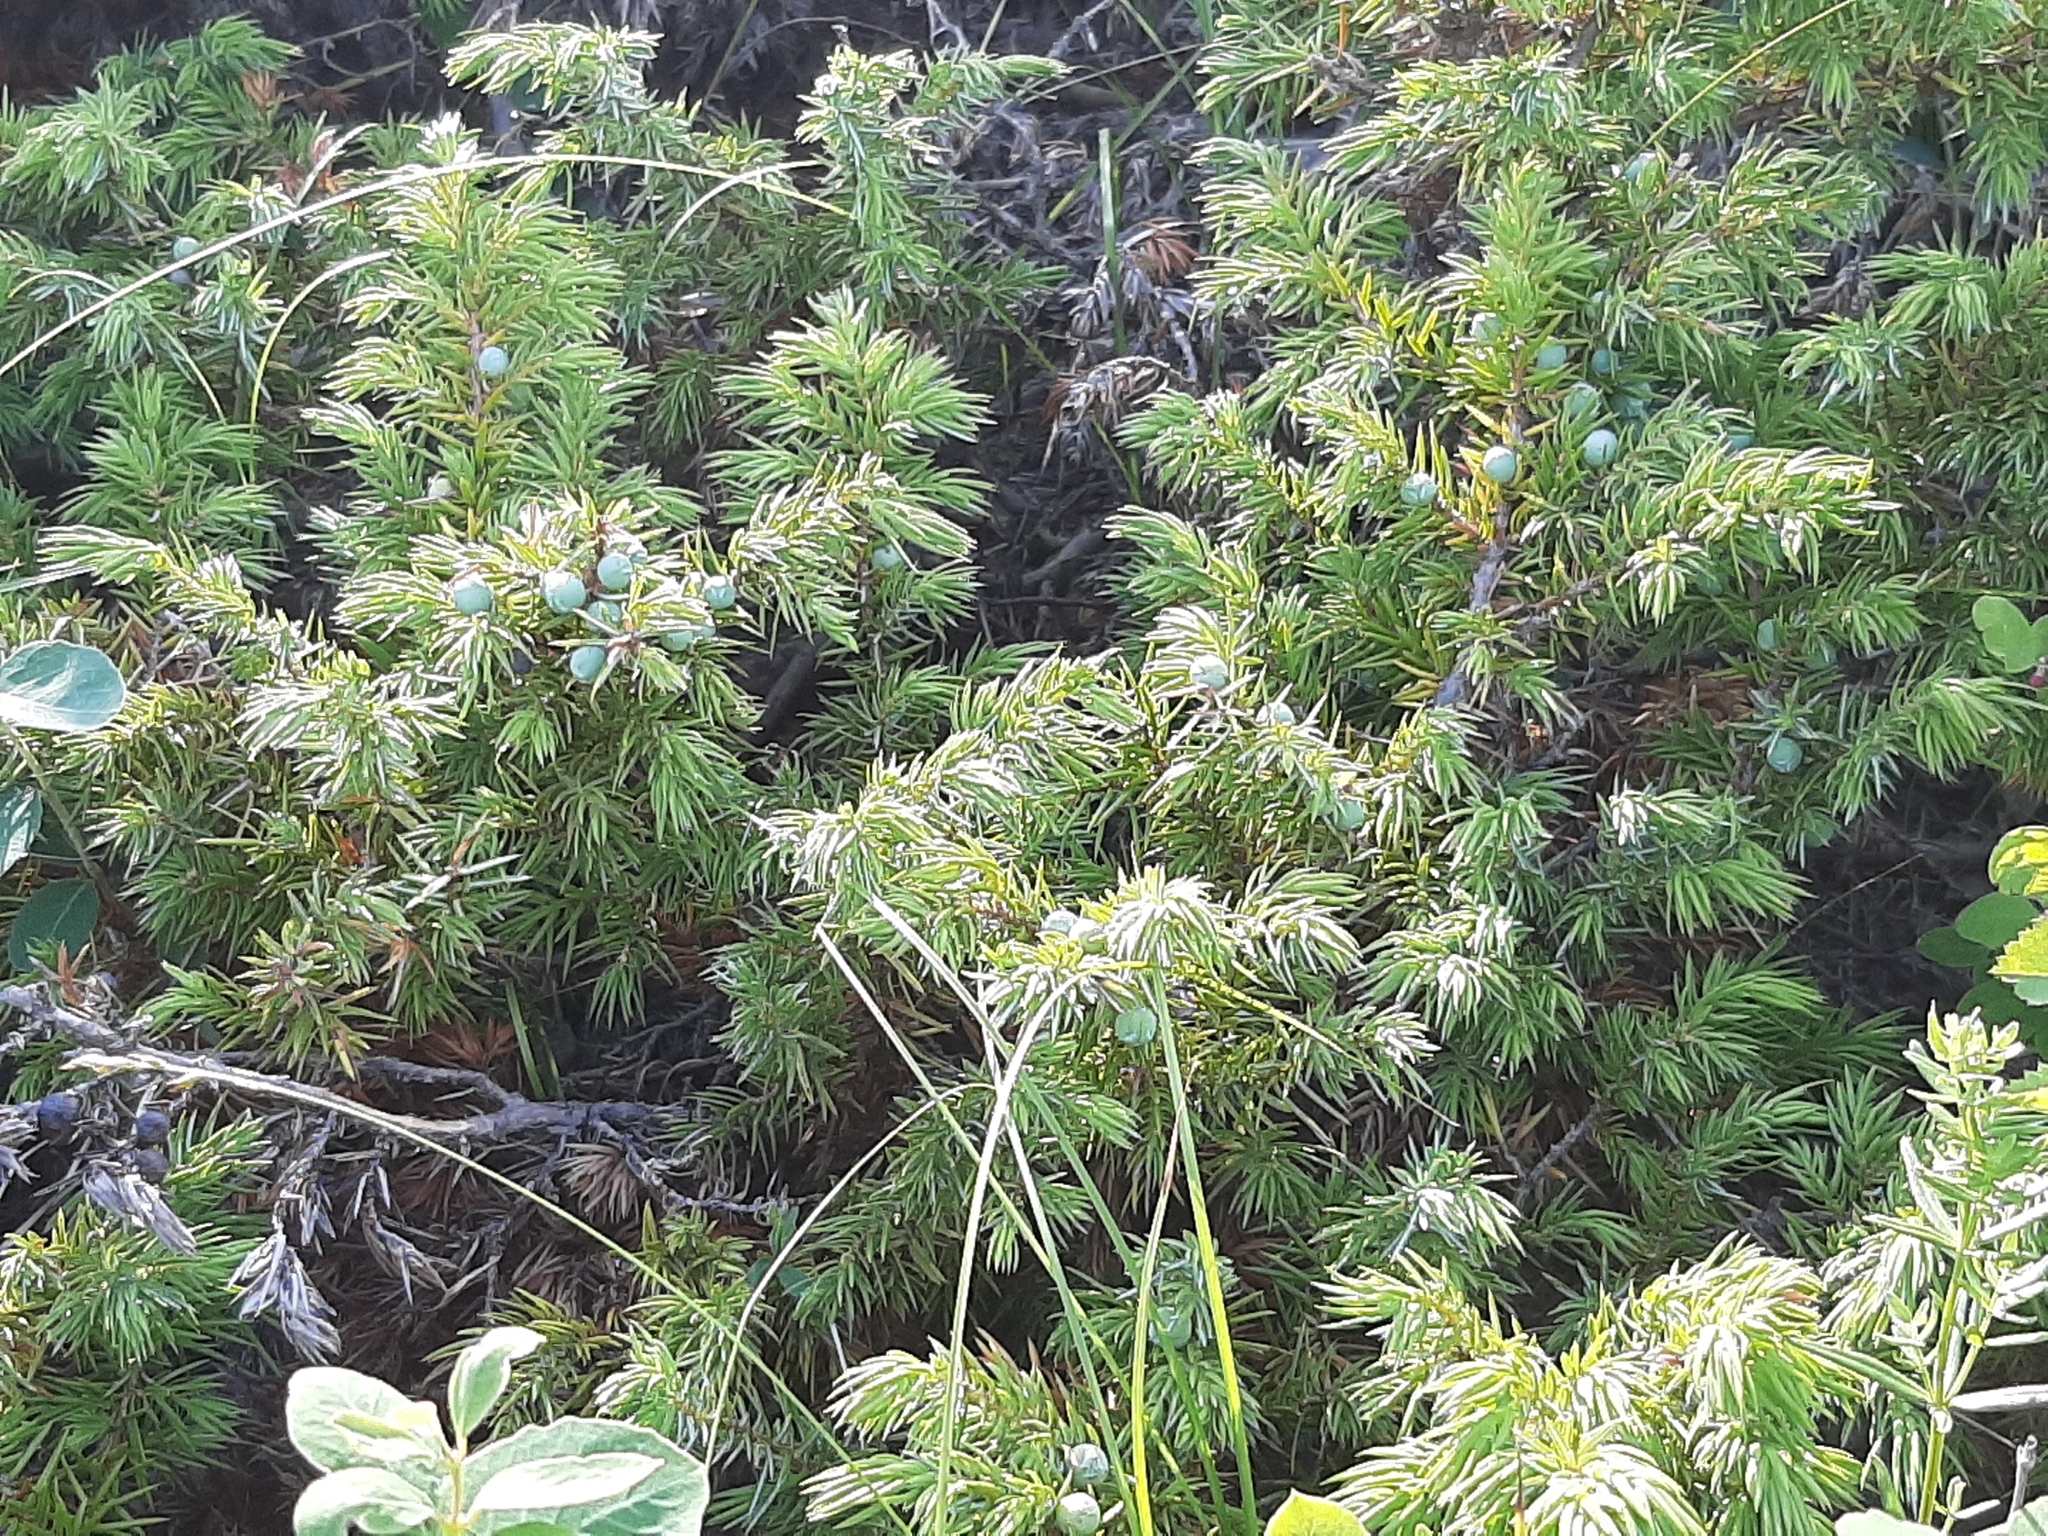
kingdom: Plantae
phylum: Tracheophyta
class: Pinopsida
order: Pinales
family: Cupressaceae
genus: Juniperus
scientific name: Juniperus communis
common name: Common juniper
